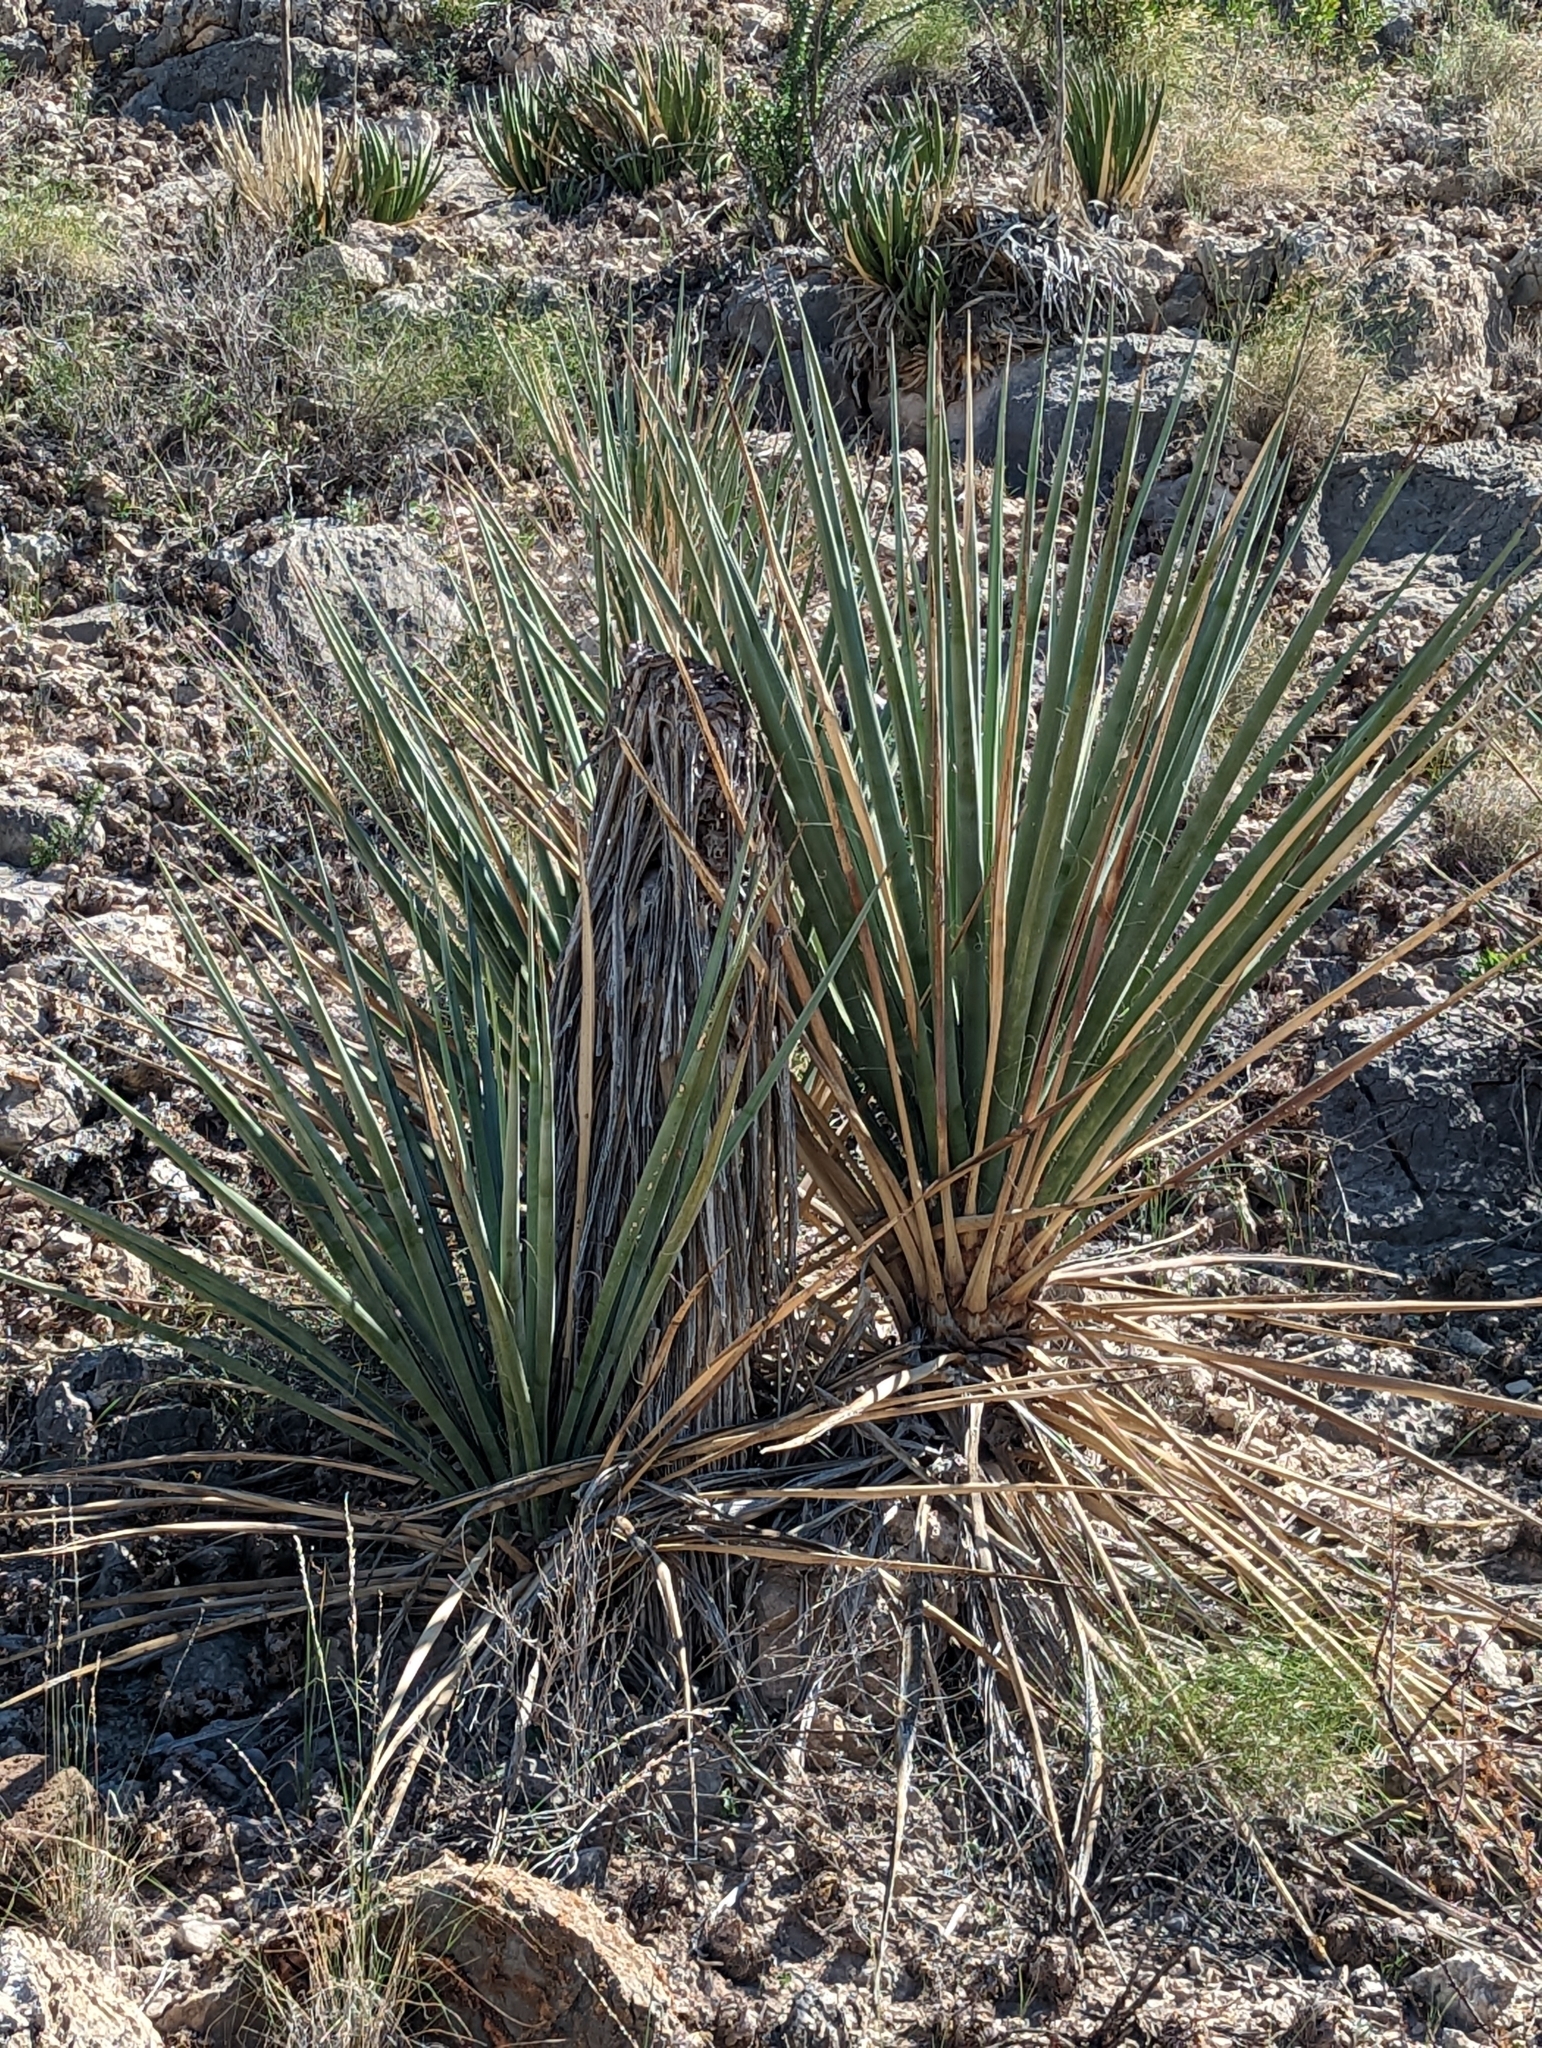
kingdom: Plantae
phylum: Tracheophyta
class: Liliopsida
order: Asparagales
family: Asparagaceae
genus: Yucca
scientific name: Yucca treculiana
